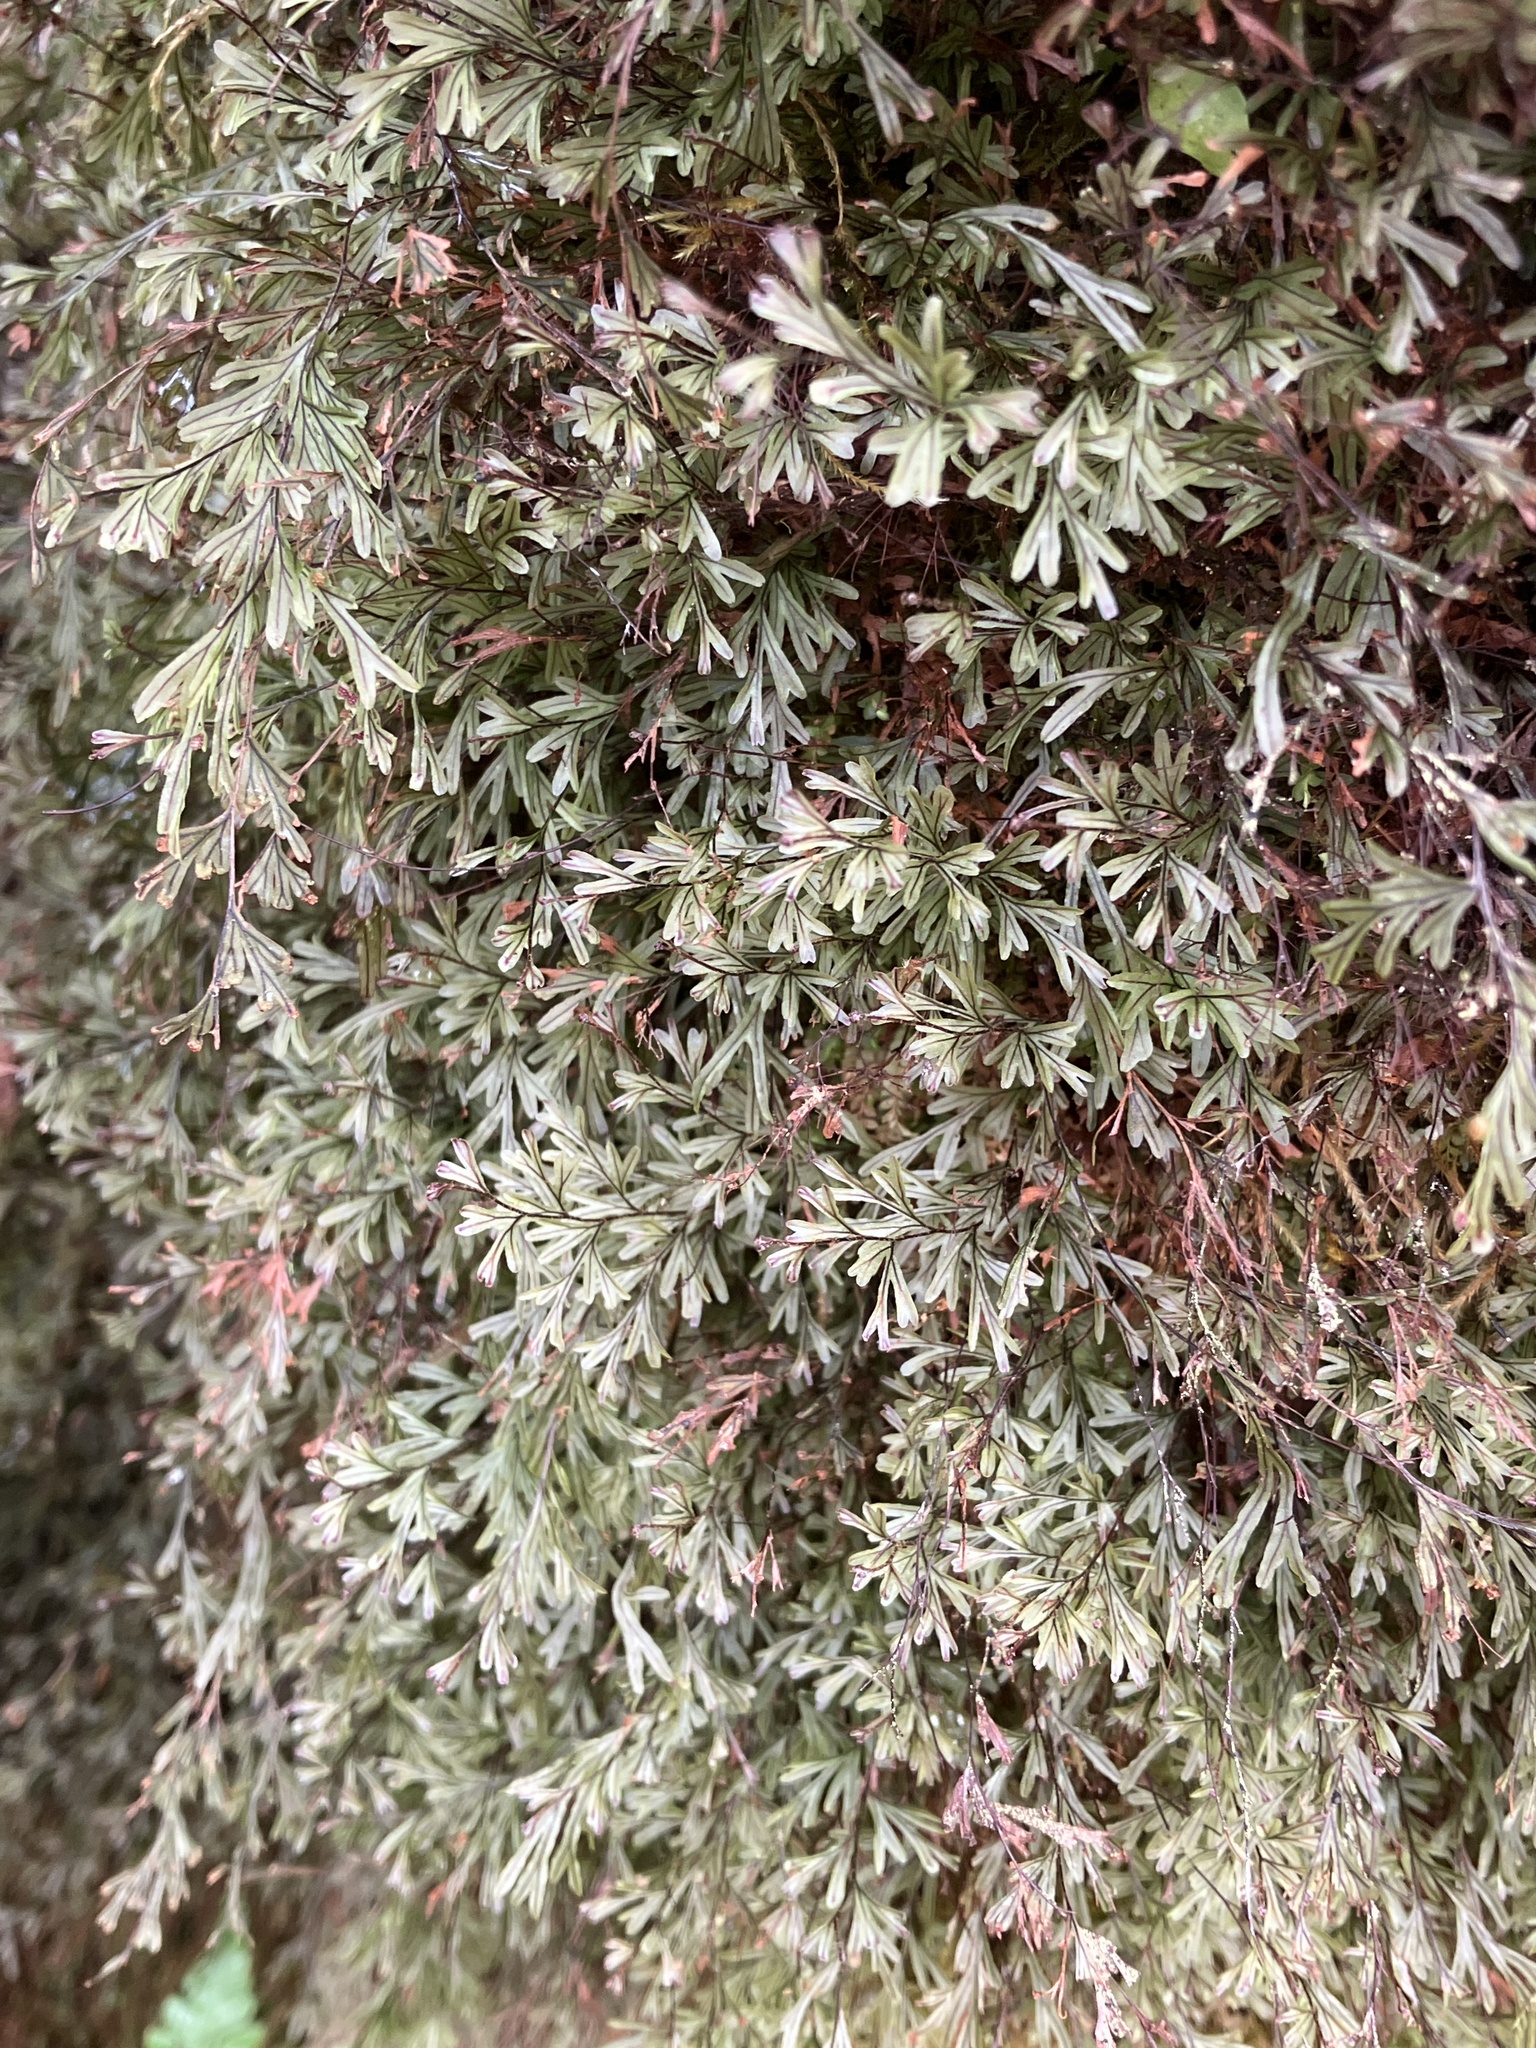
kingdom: Plantae
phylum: Tracheophyta
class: Polypodiopsida
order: Hymenophyllales
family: Hymenophyllaceae
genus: Hymenophyllum
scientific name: Hymenophyllum capillaceum
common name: St helena filmy fern
